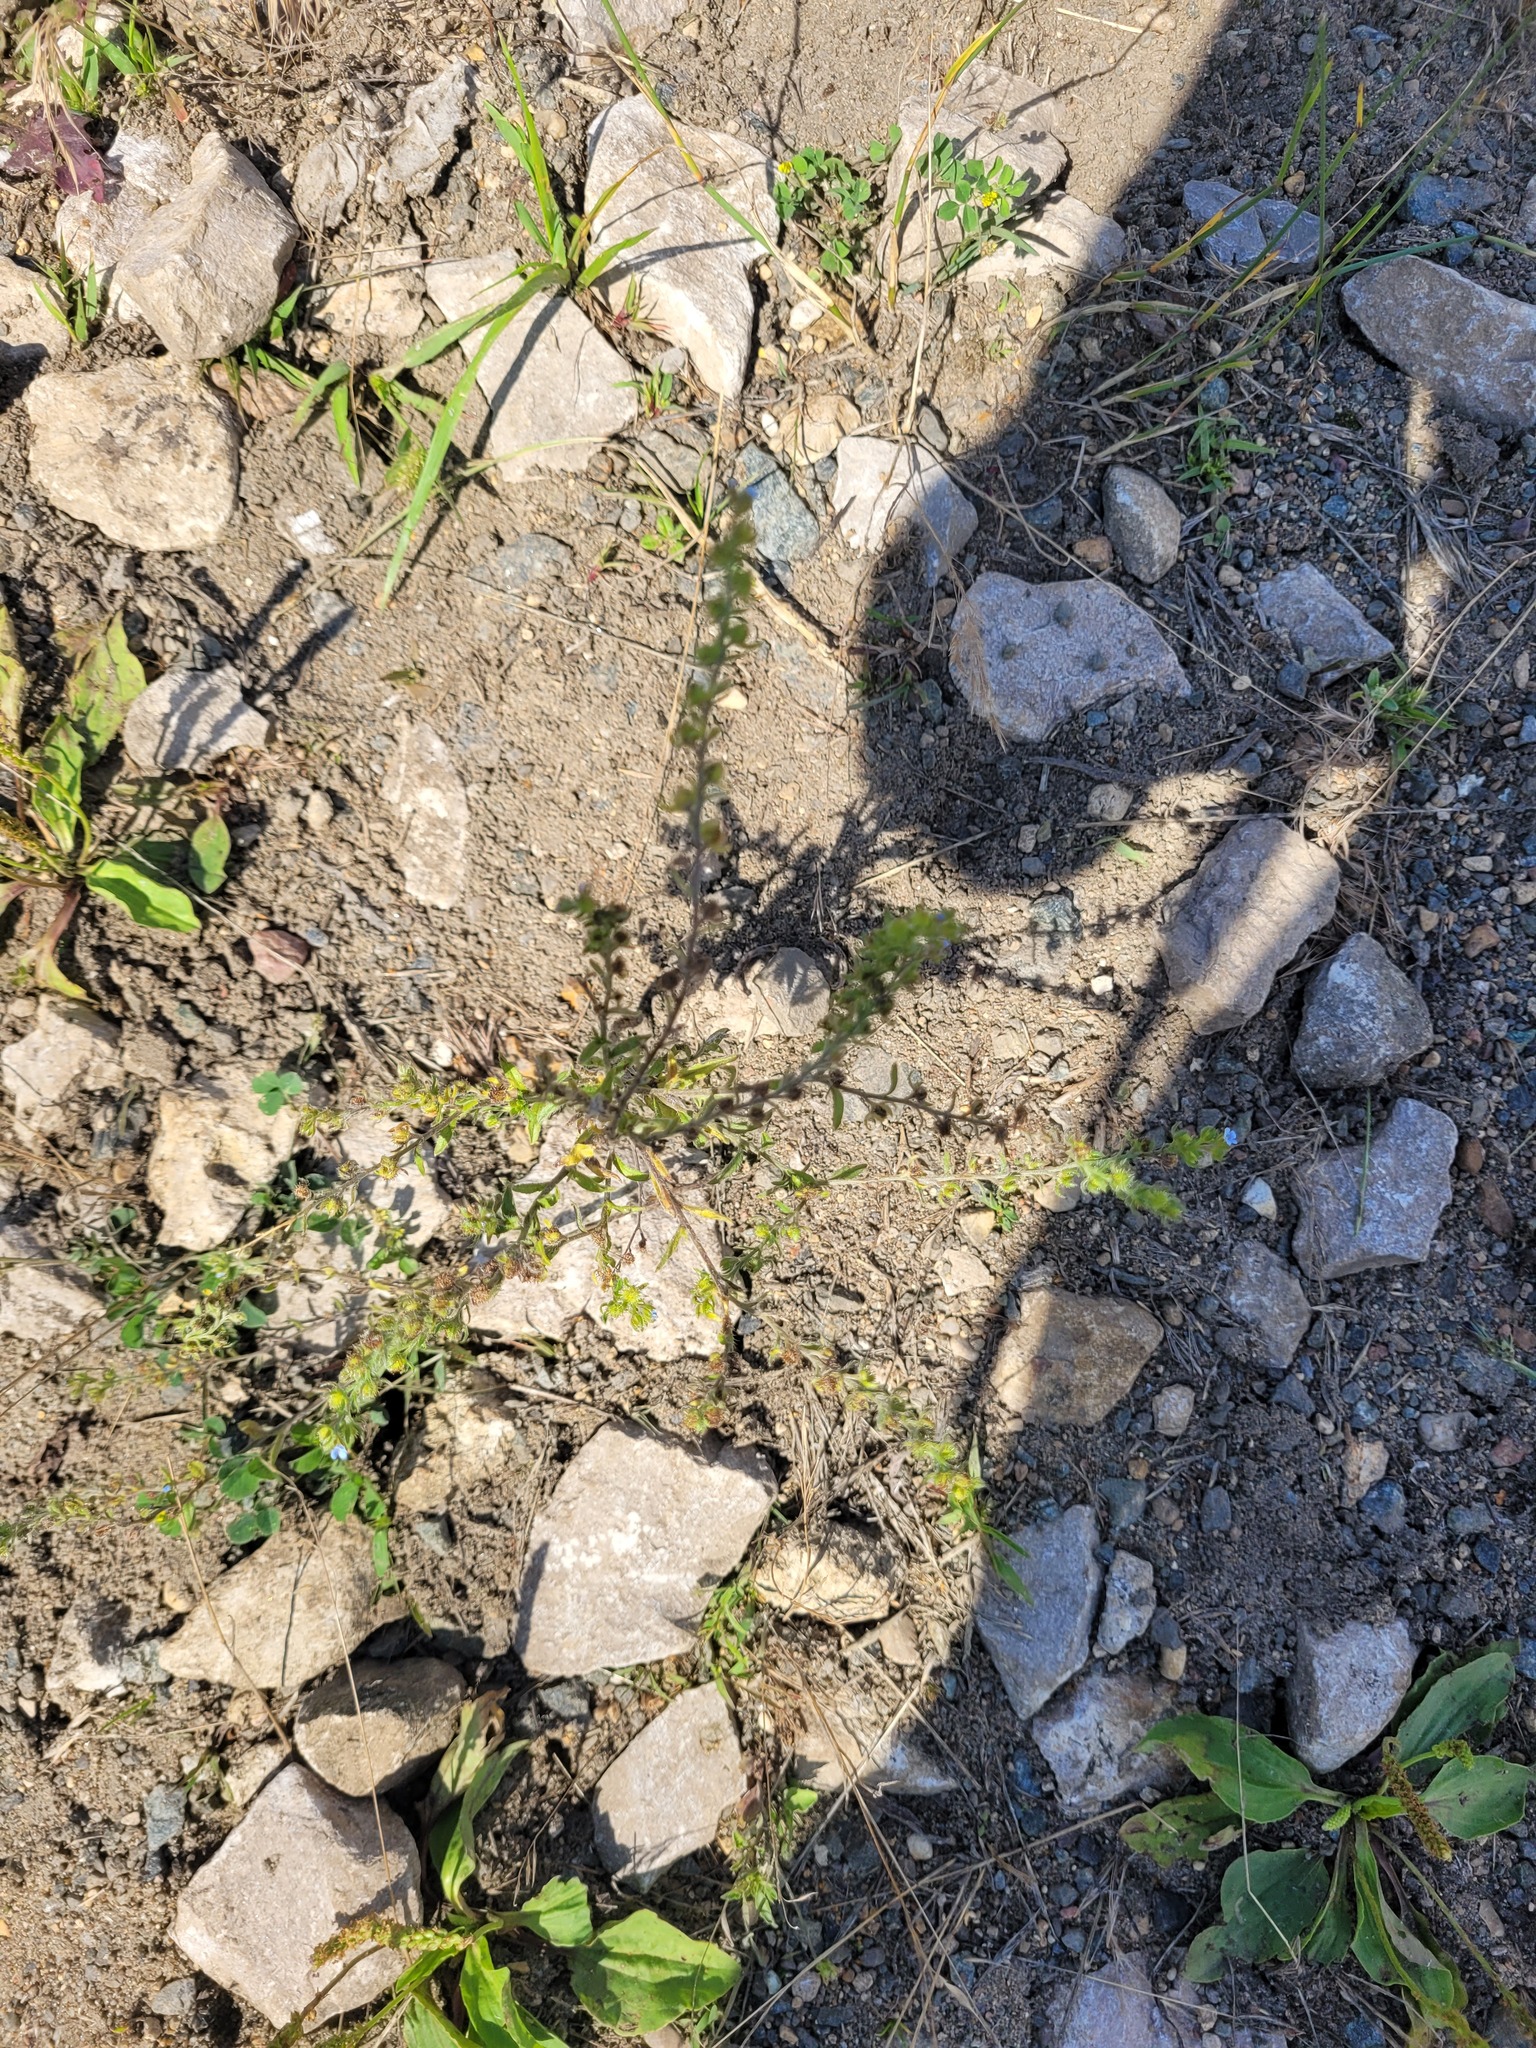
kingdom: Plantae
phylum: Tracheophyta
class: Magnoliopsida
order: Boraginales
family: Boraginaceae
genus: Lappula
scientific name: Lappula squarrosa
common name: European stickseed
